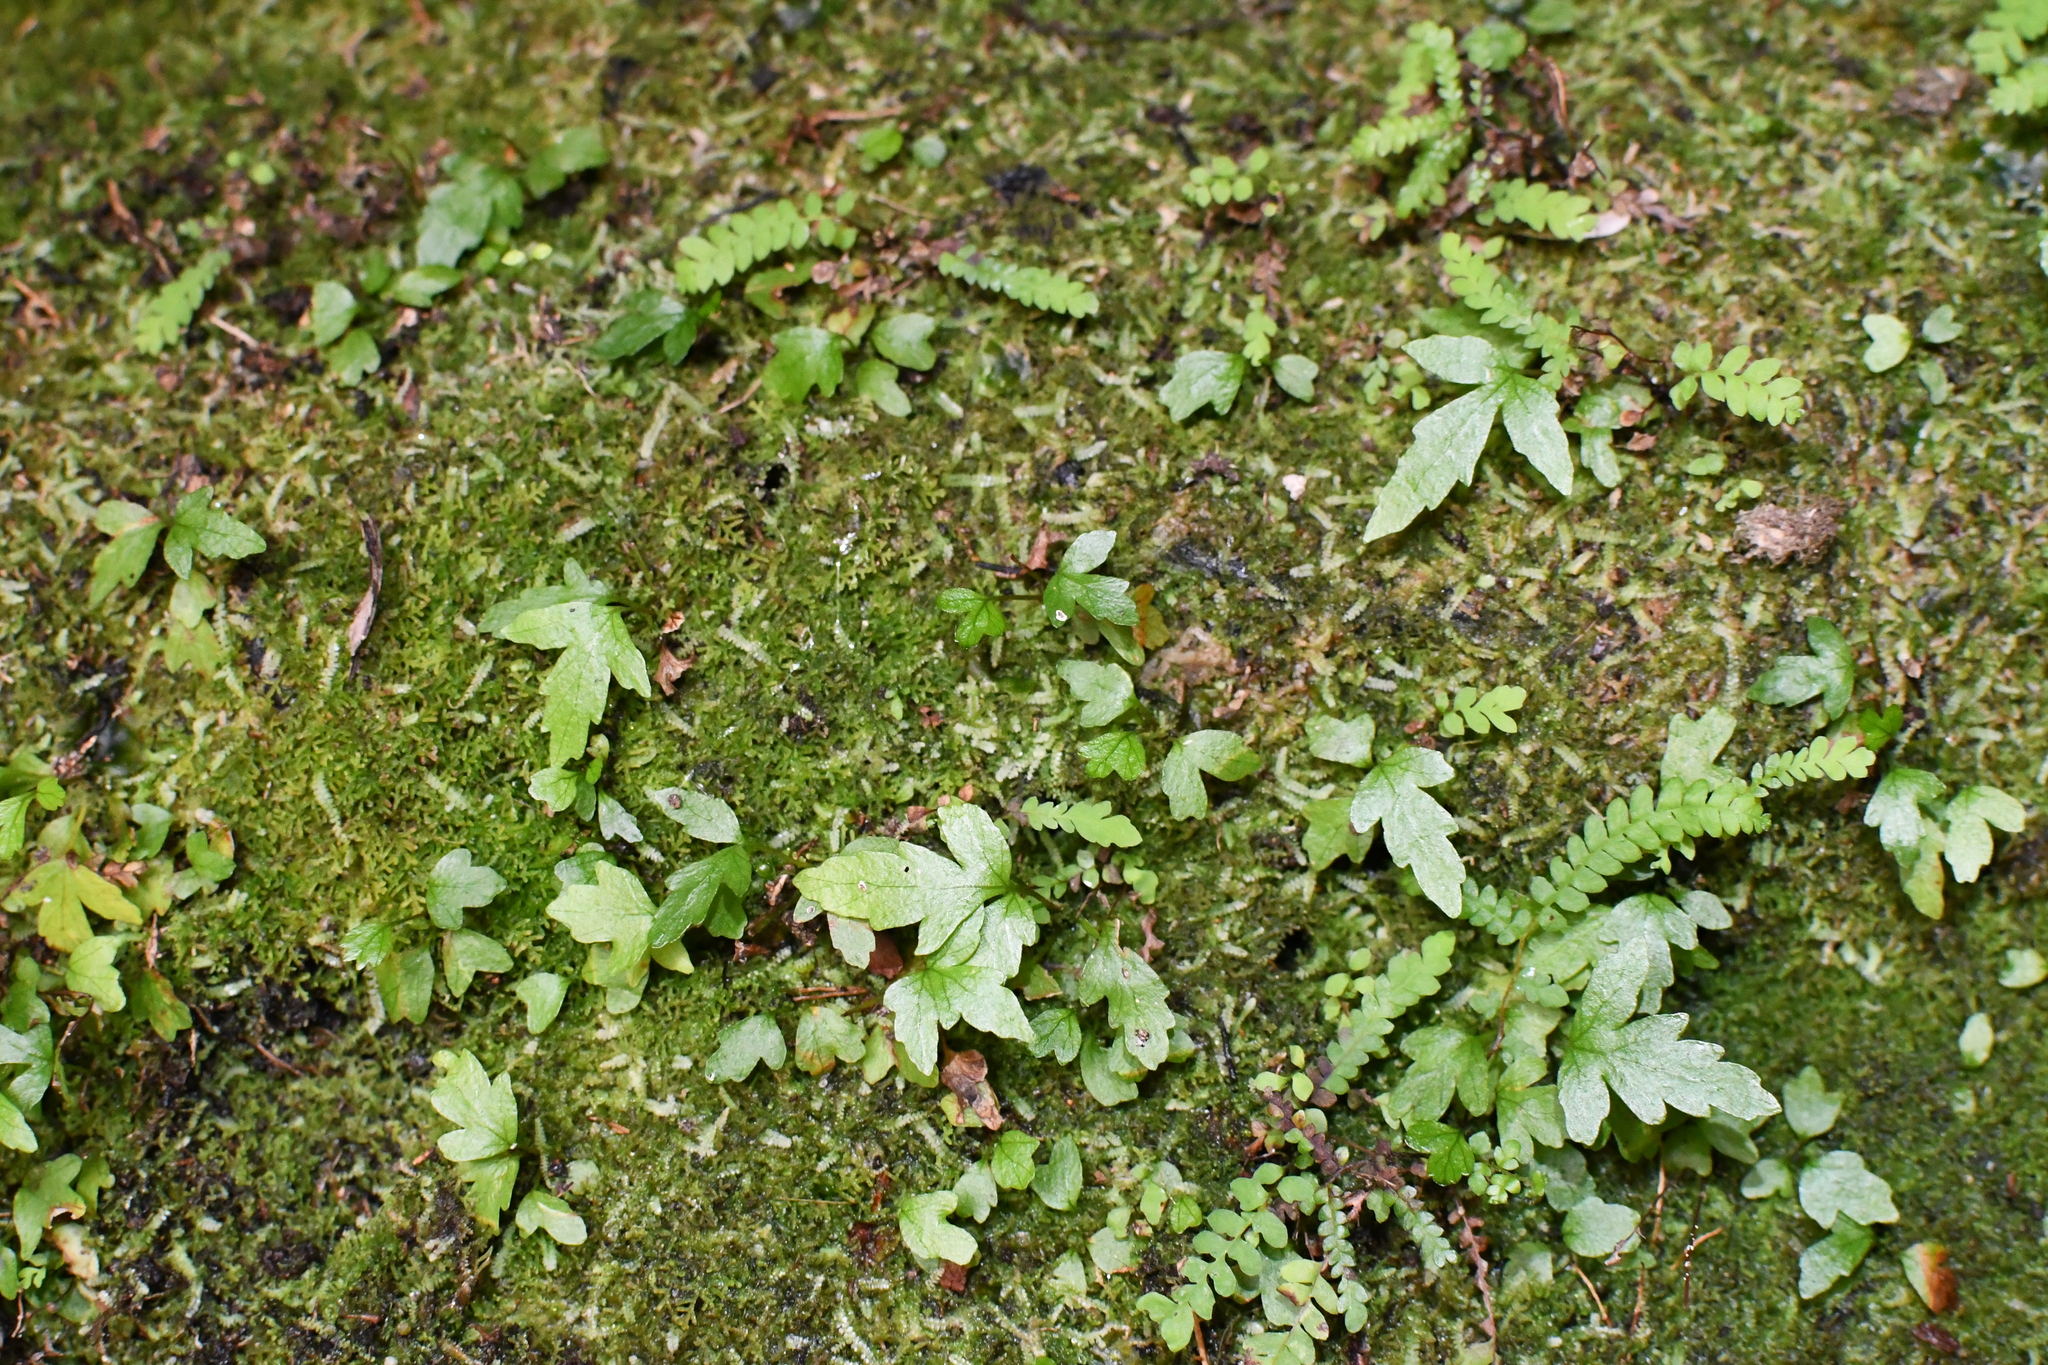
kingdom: Plantae
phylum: Tracheophyta
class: Polypodiopsida
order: Osmundales
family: Osmundaceae
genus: Todea
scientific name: Todea barbara
